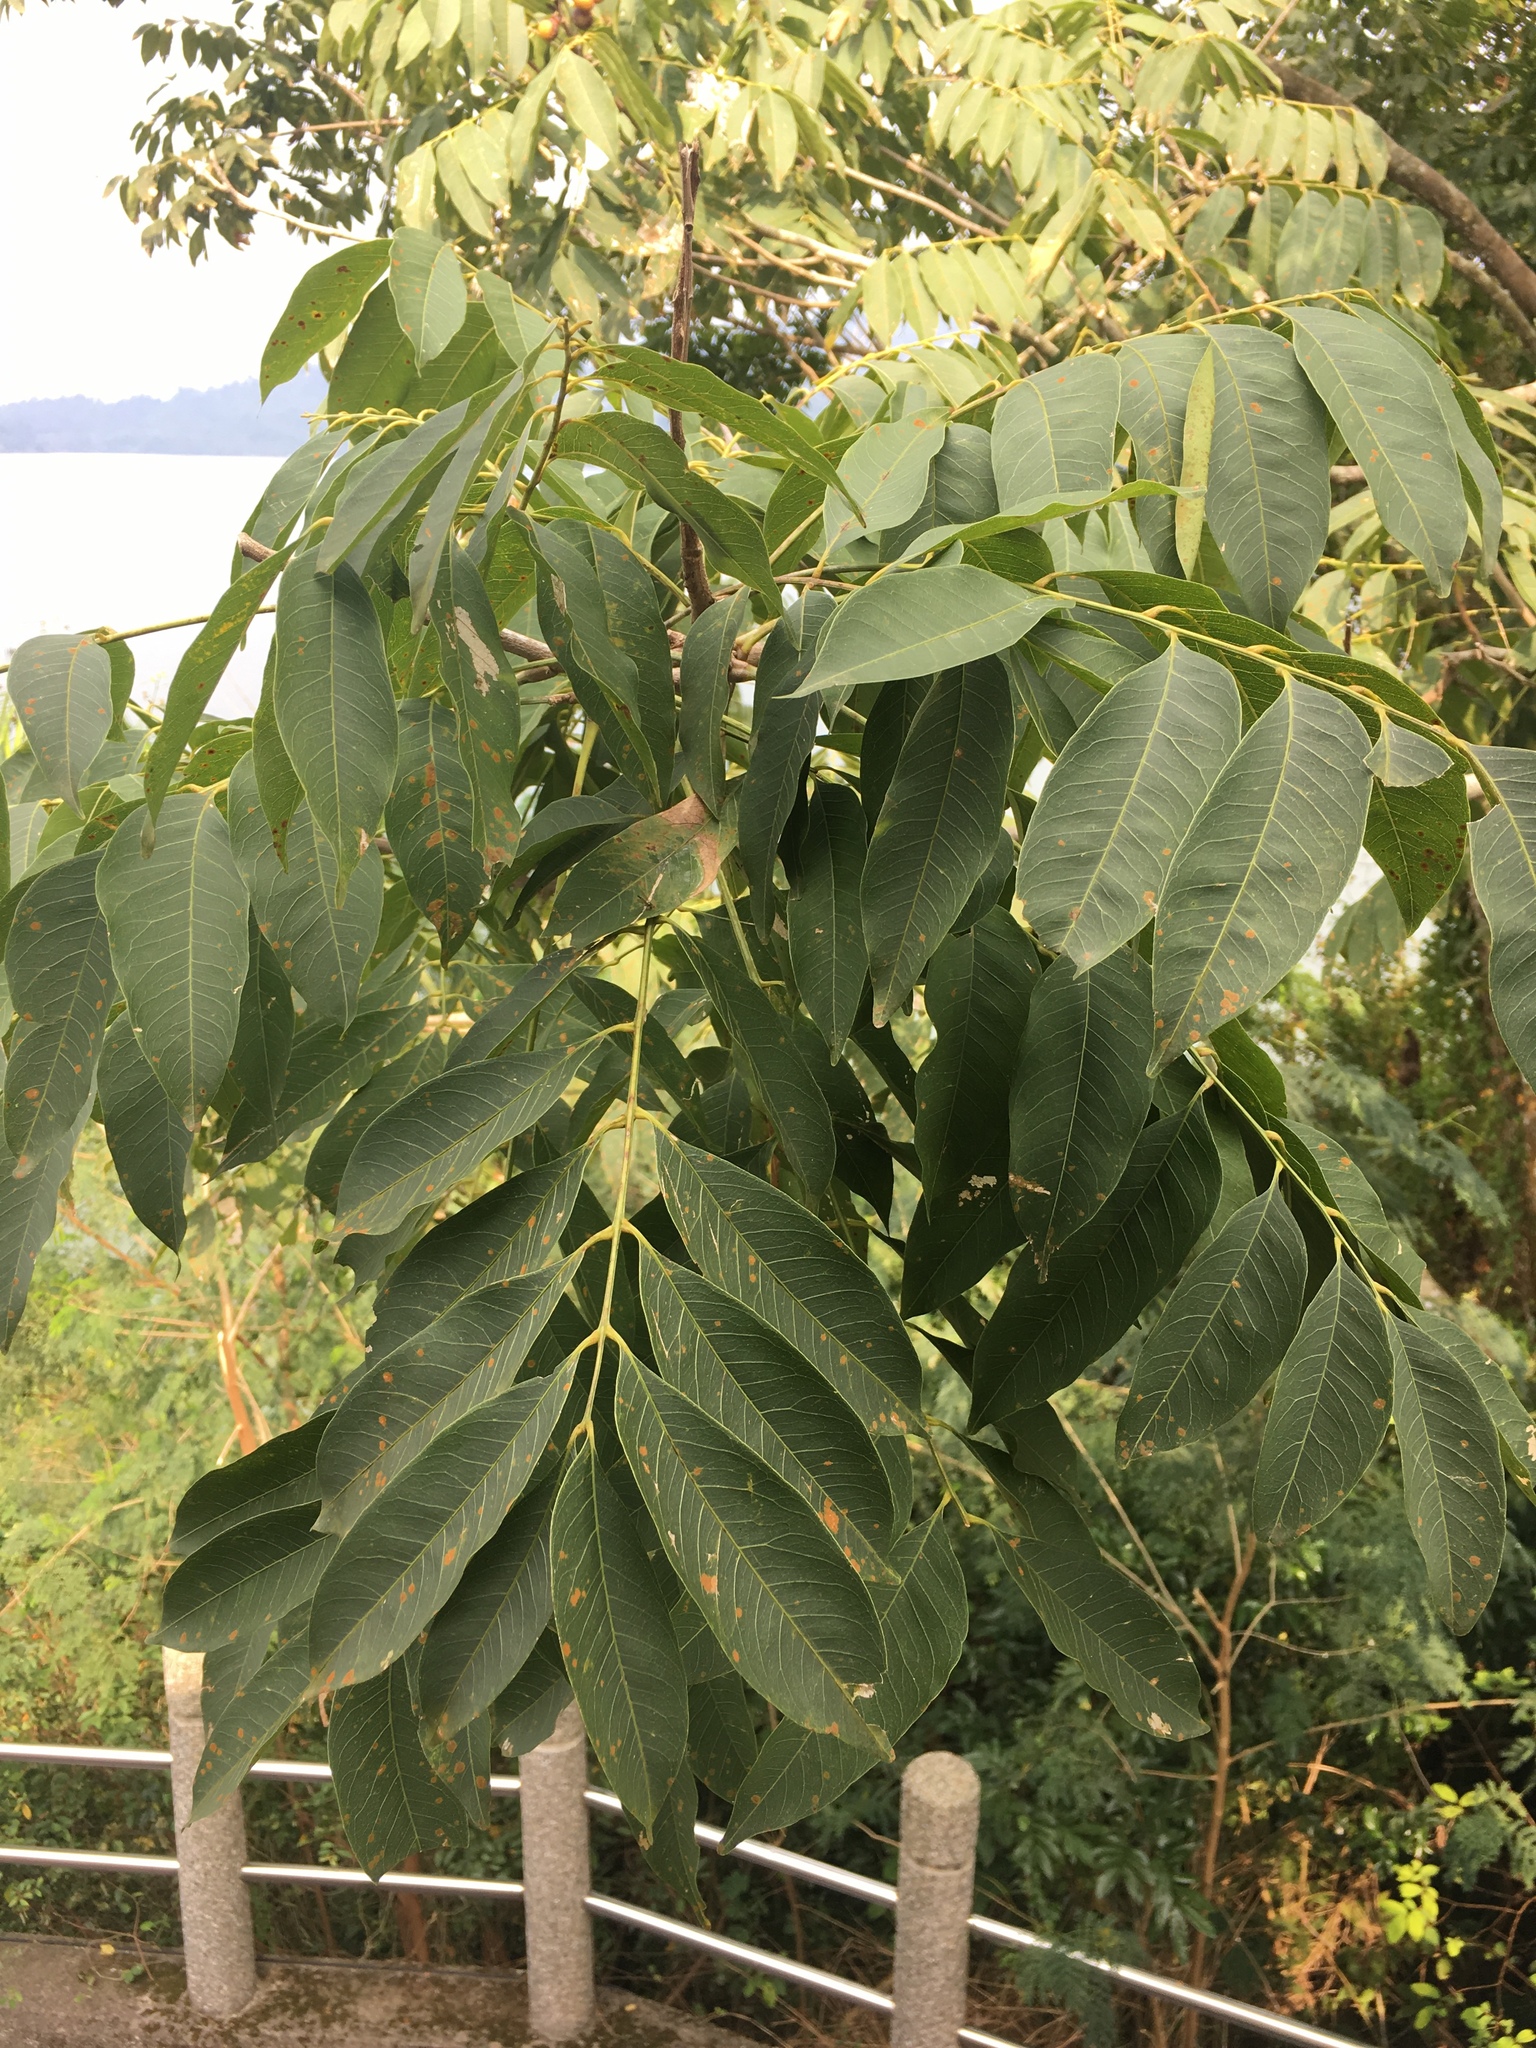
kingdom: Plantae
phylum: Tracheophyta
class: Magnoliopsida
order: Sapindales
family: Sapindaceae
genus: Sapindus
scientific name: Sapindus mukorossi
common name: Chinese soapberry
